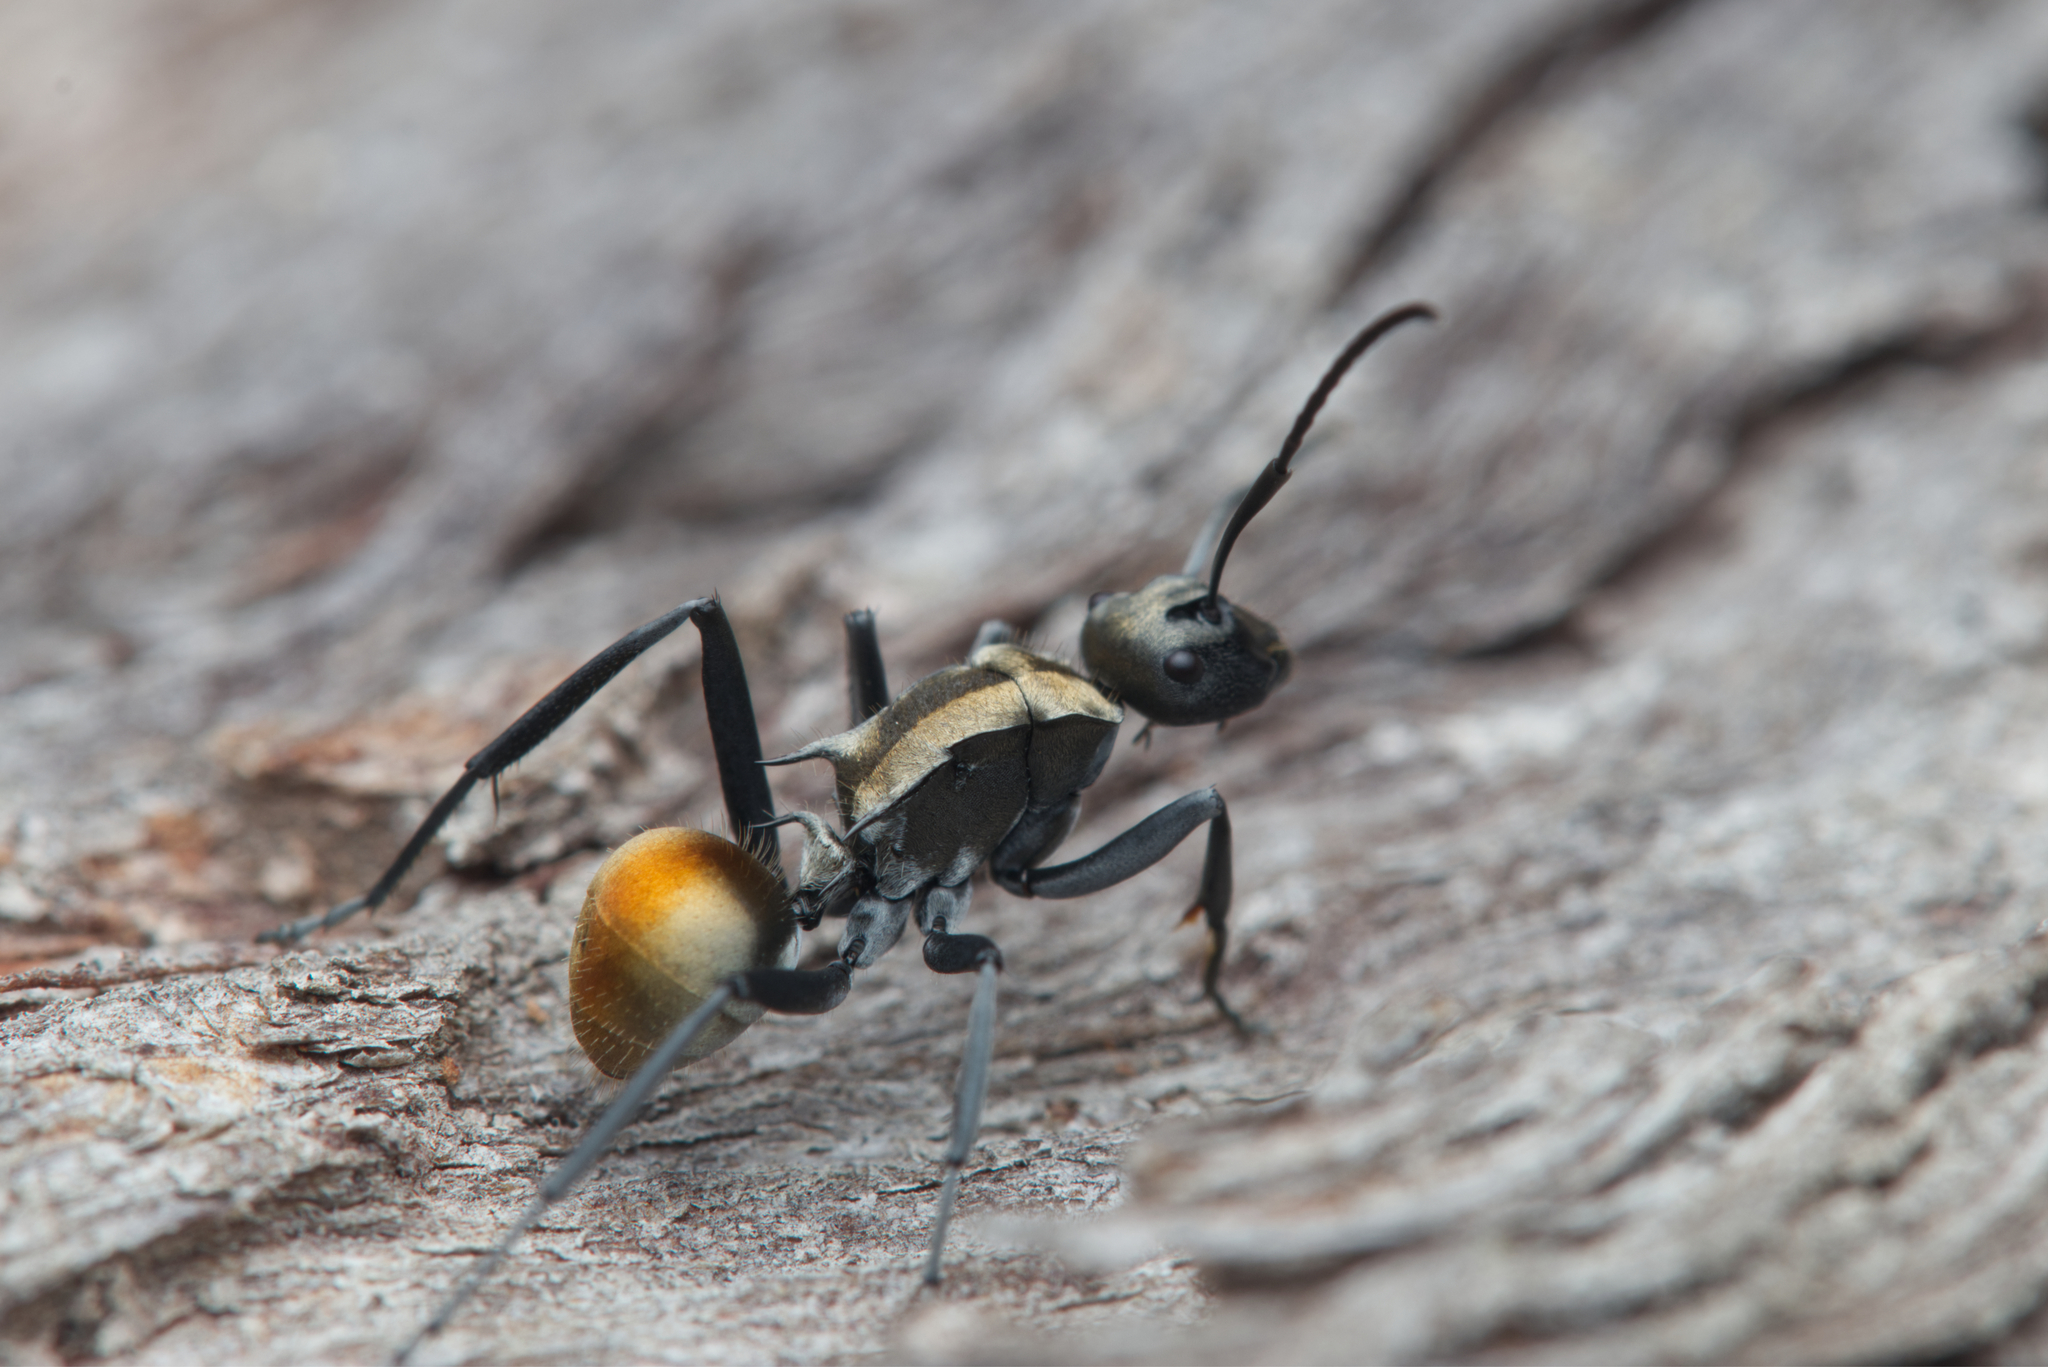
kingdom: Animalia
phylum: Arthropoda
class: Insecta
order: Hymenoptera
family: Formicidae
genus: Polyrhachis
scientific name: Polyrhachis ammon
